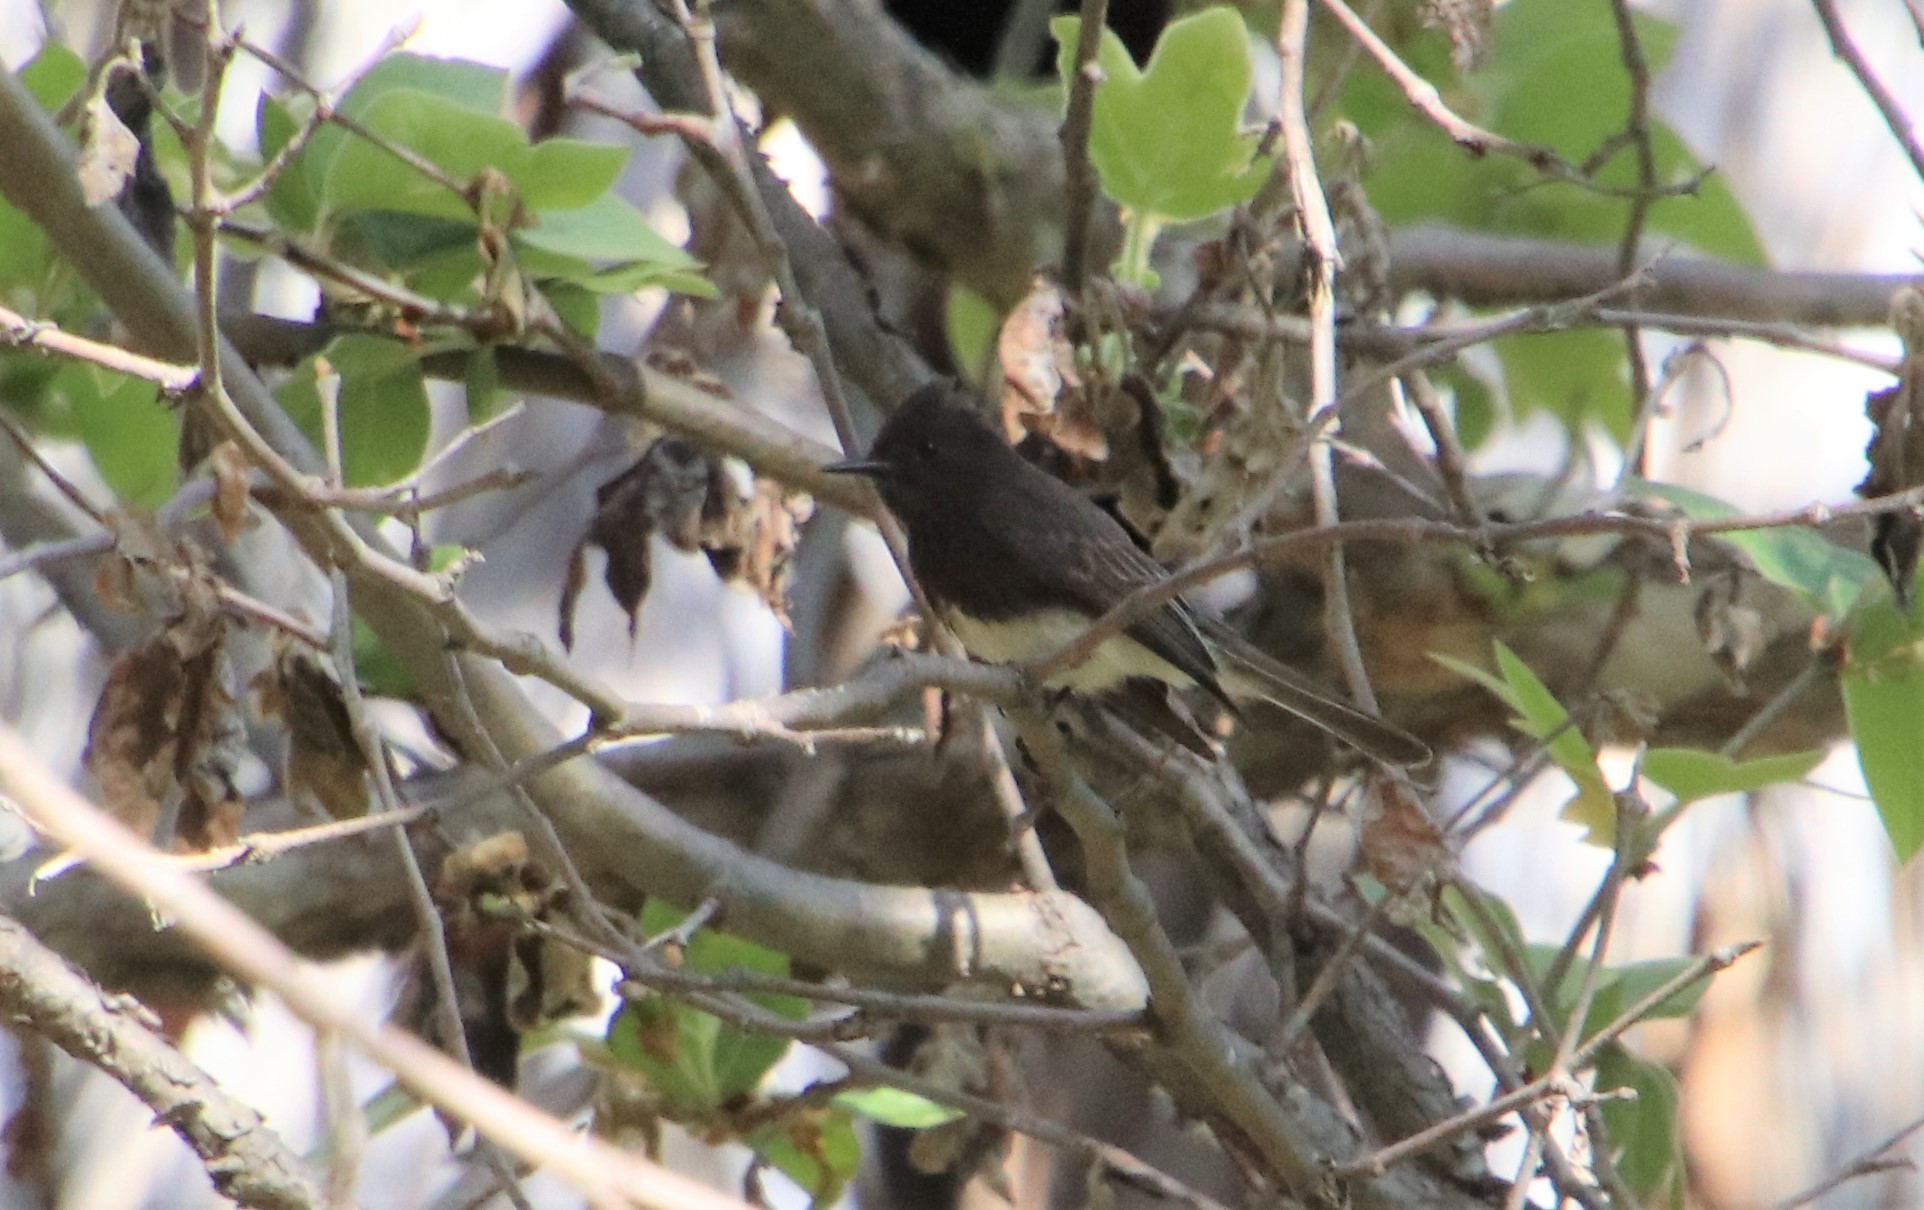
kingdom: Animalia
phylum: Chordata
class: Aves
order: Passeriformes
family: Tyrannidae
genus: Sayornis
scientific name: Sayornis nigricans
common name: Black phoebe
